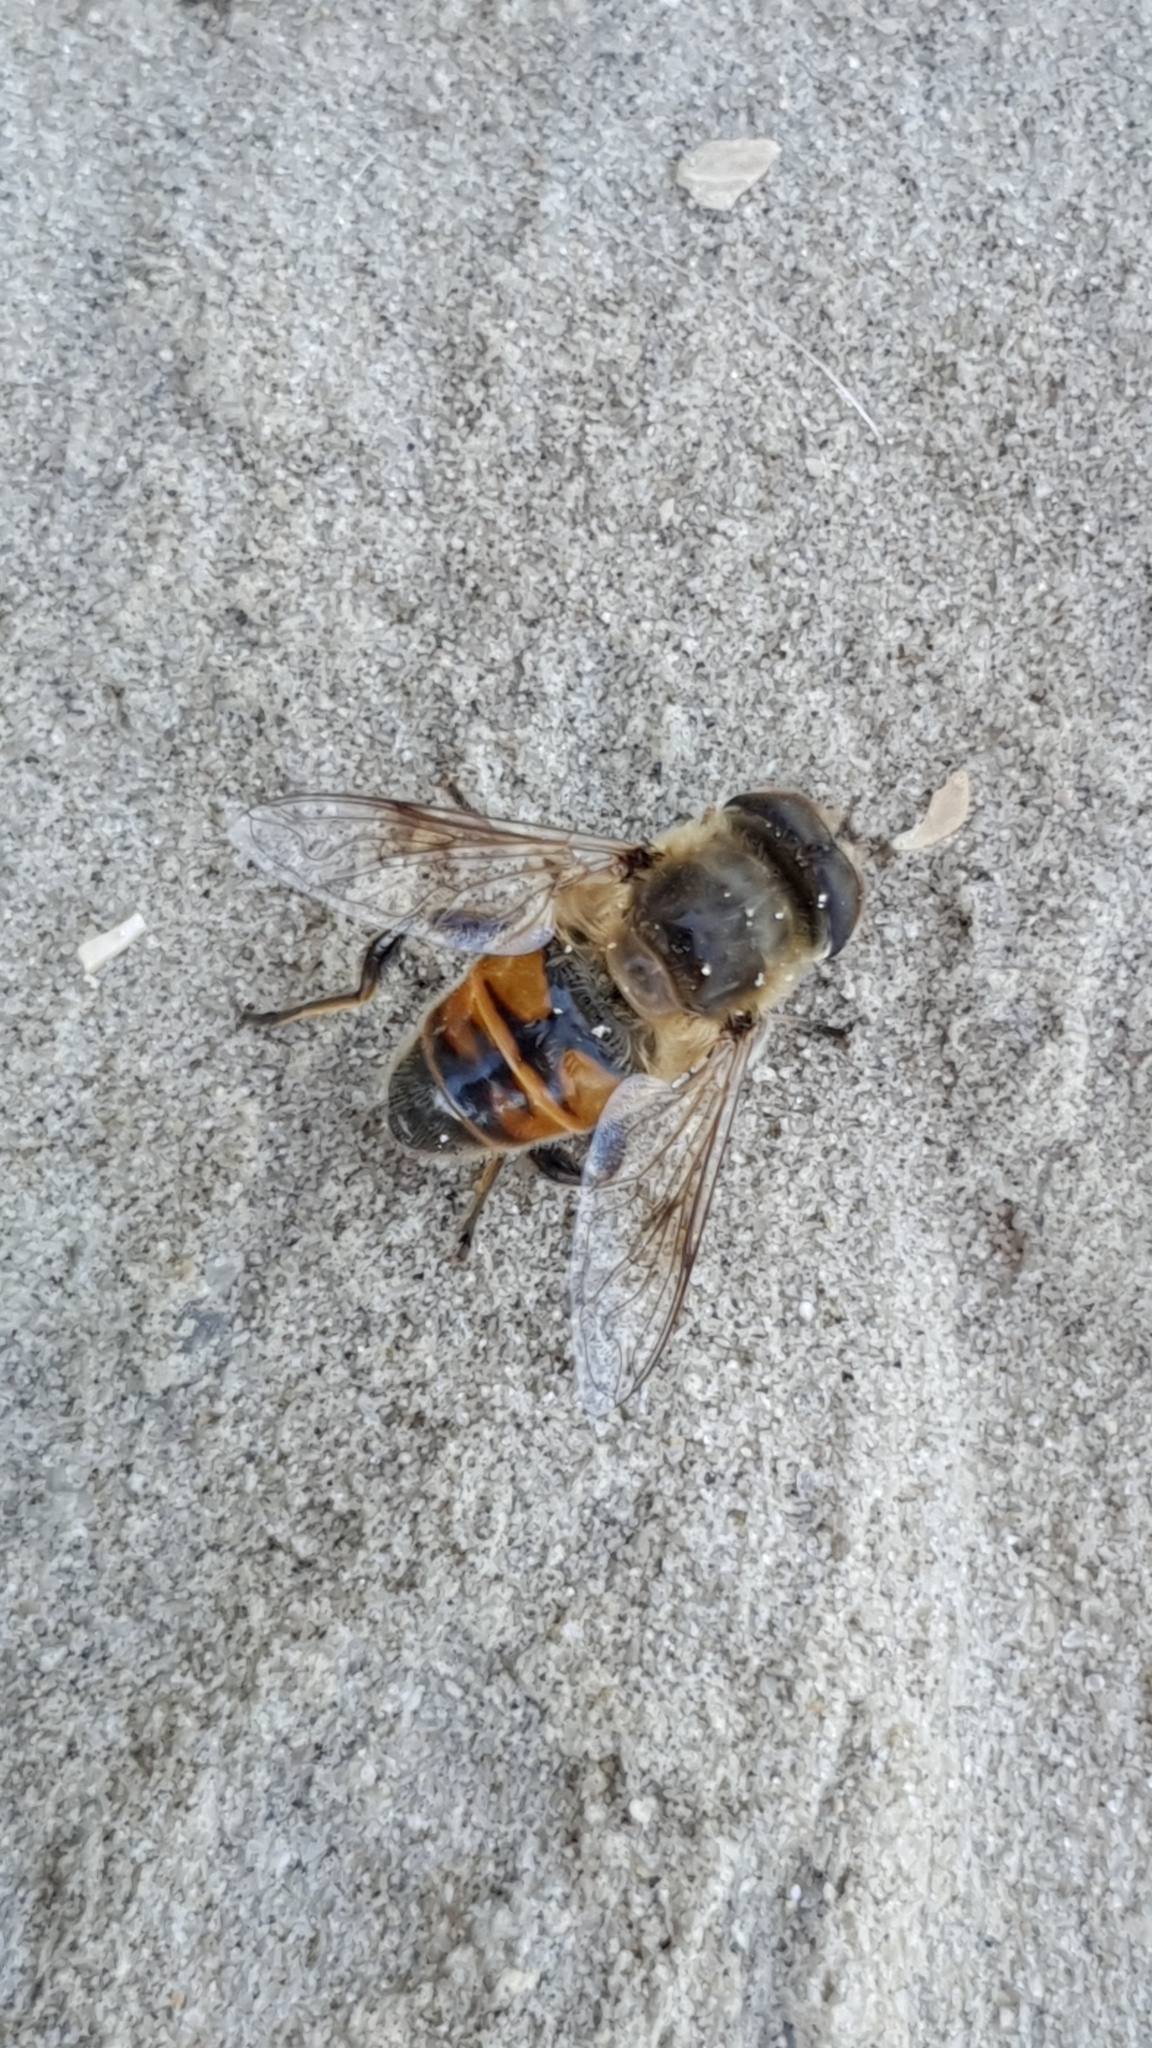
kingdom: Animalia
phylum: Arthropoda
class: Insecta
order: Diptera
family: Syrphidae
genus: Eristalis
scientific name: Eristalis tenax
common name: Drone fly
